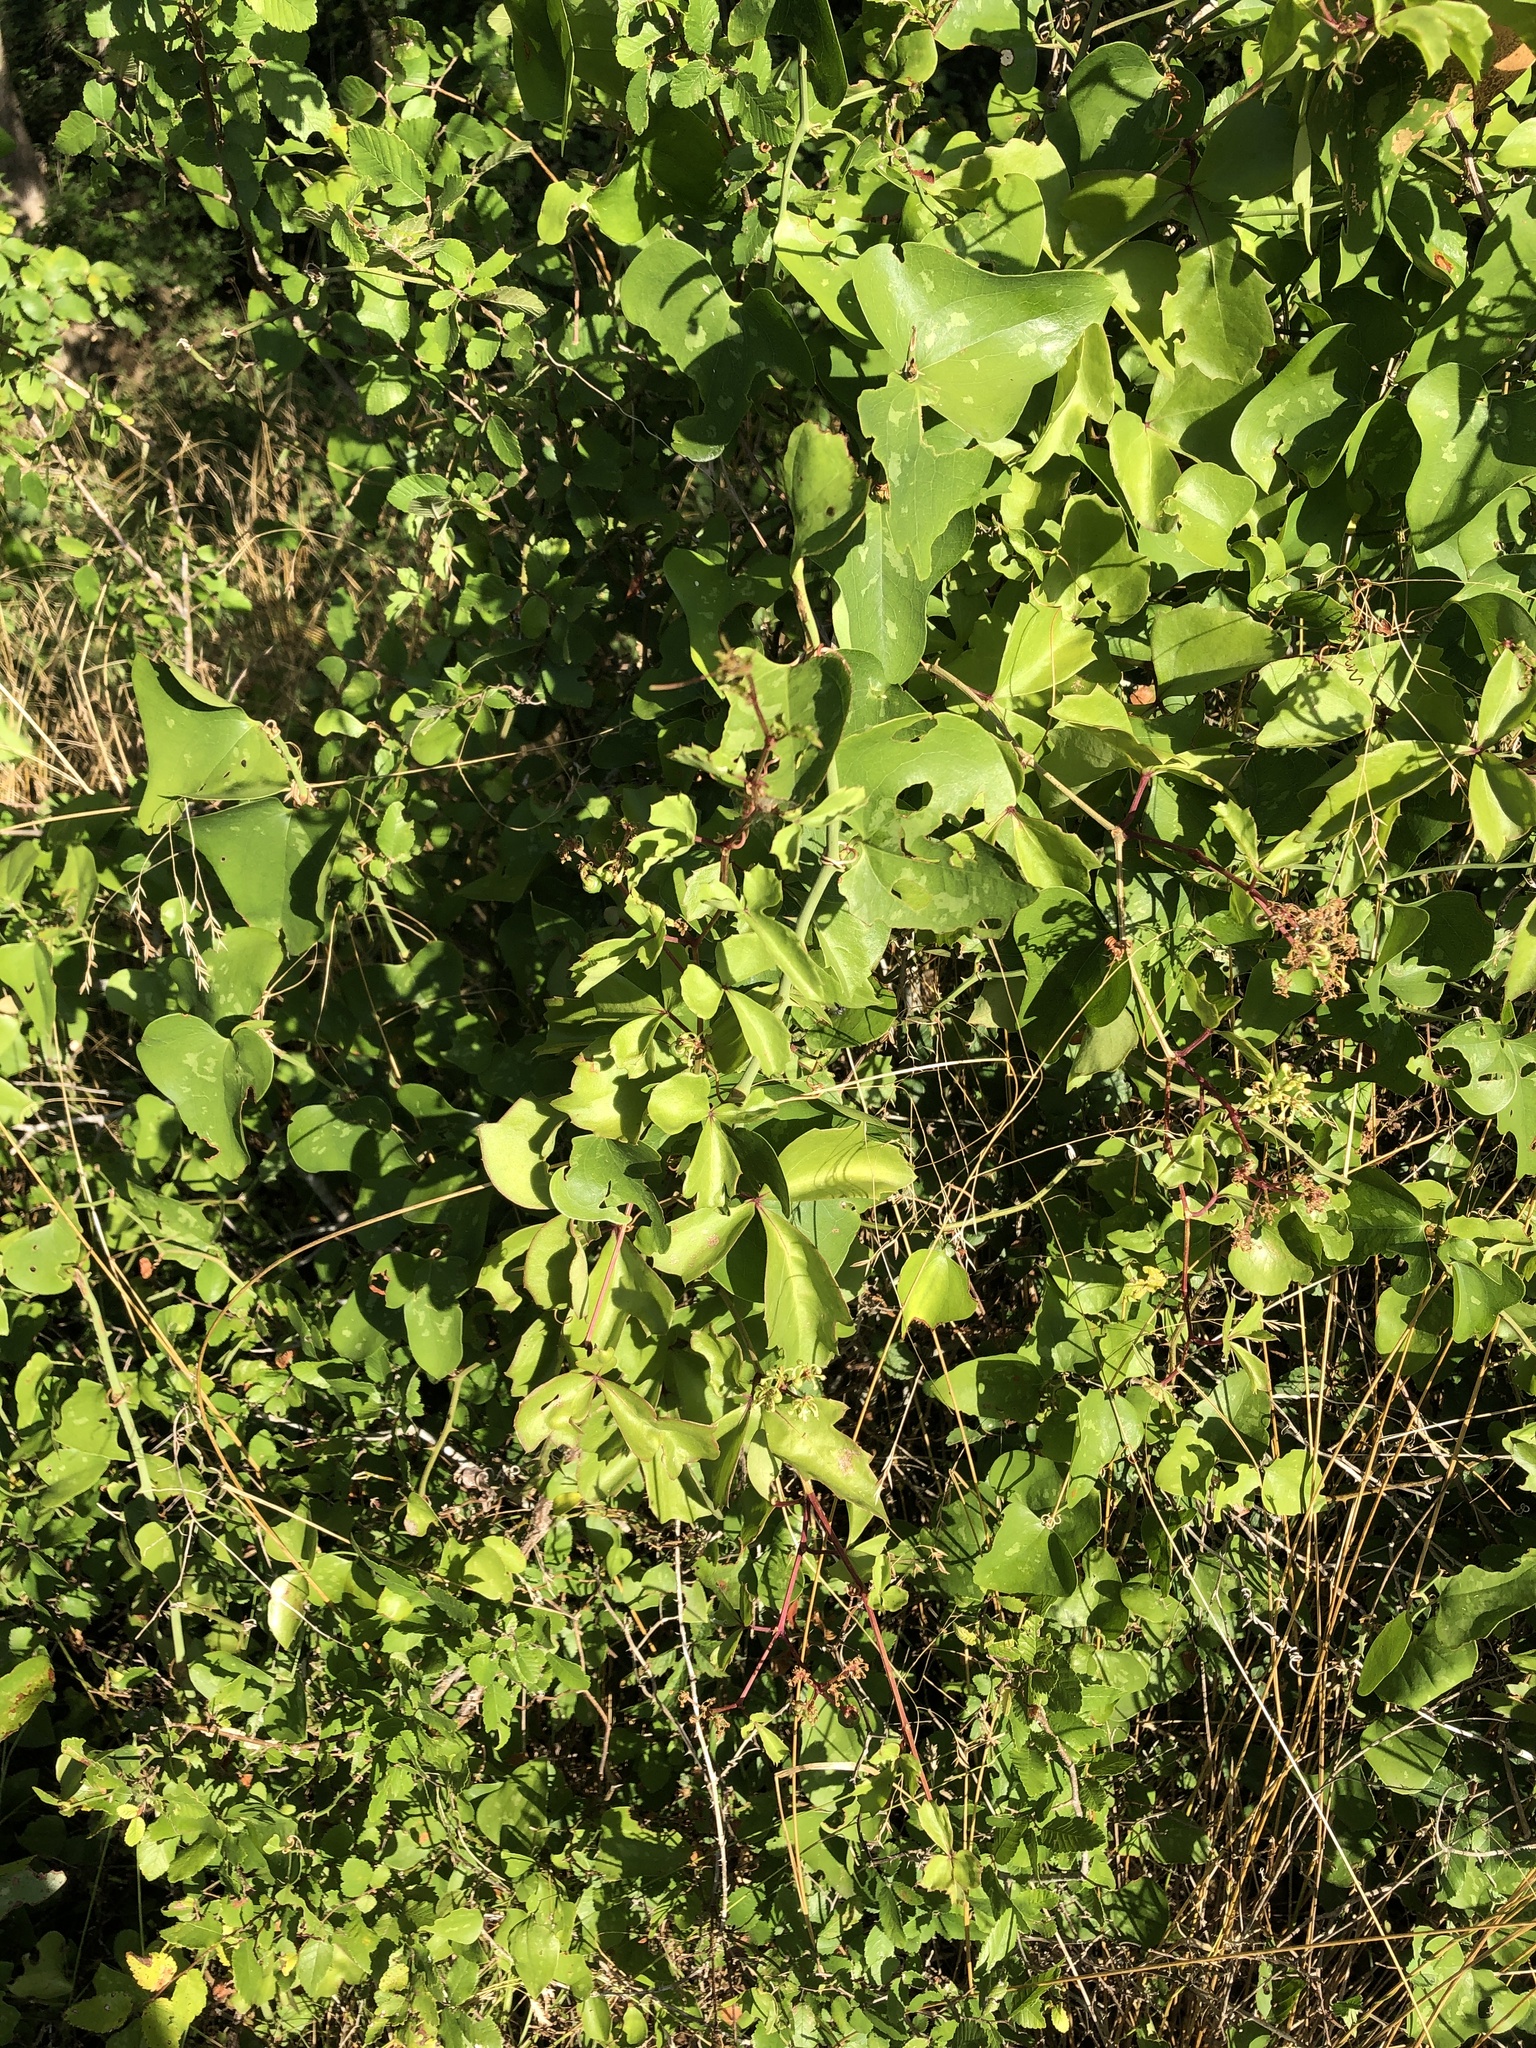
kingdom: Plantae
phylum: Tracheophyta
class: Magnoliopsida
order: Vitales
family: Vitaceae
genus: Cissus
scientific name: Cissus trifoliata
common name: Vine-sorrel
